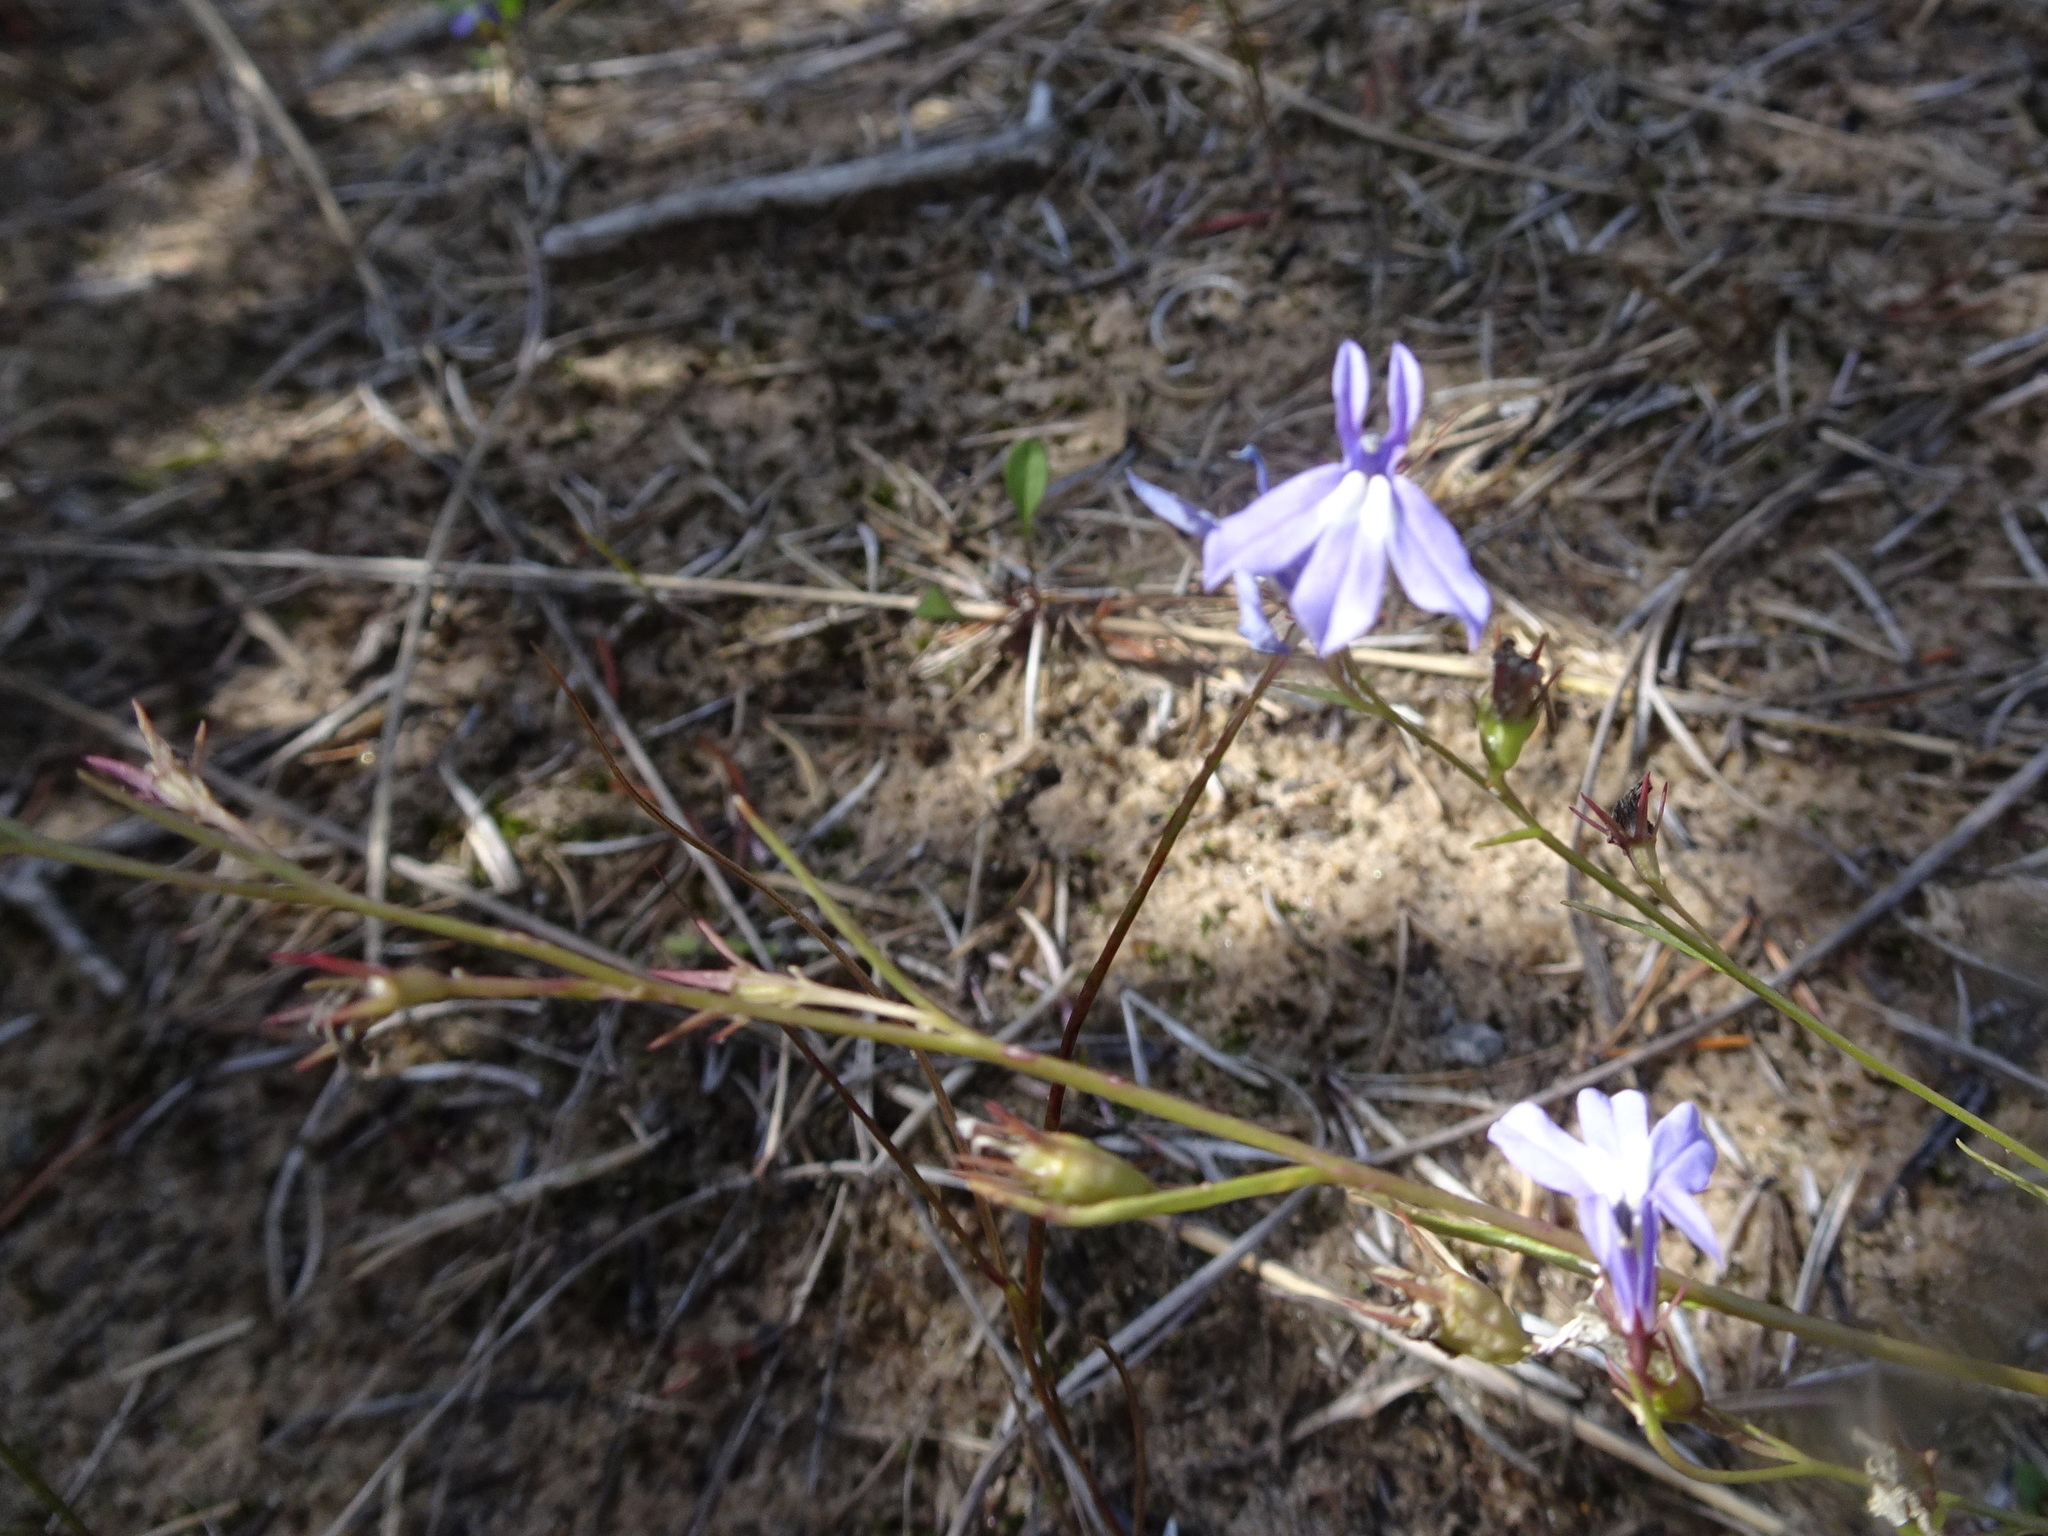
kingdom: Plantae
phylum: Tracheophyta
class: Magnoliopsida
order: Asterales
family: Campanulaceae
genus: Lobelia
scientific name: Lobelia kalmii
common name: Kalm's lobelia
